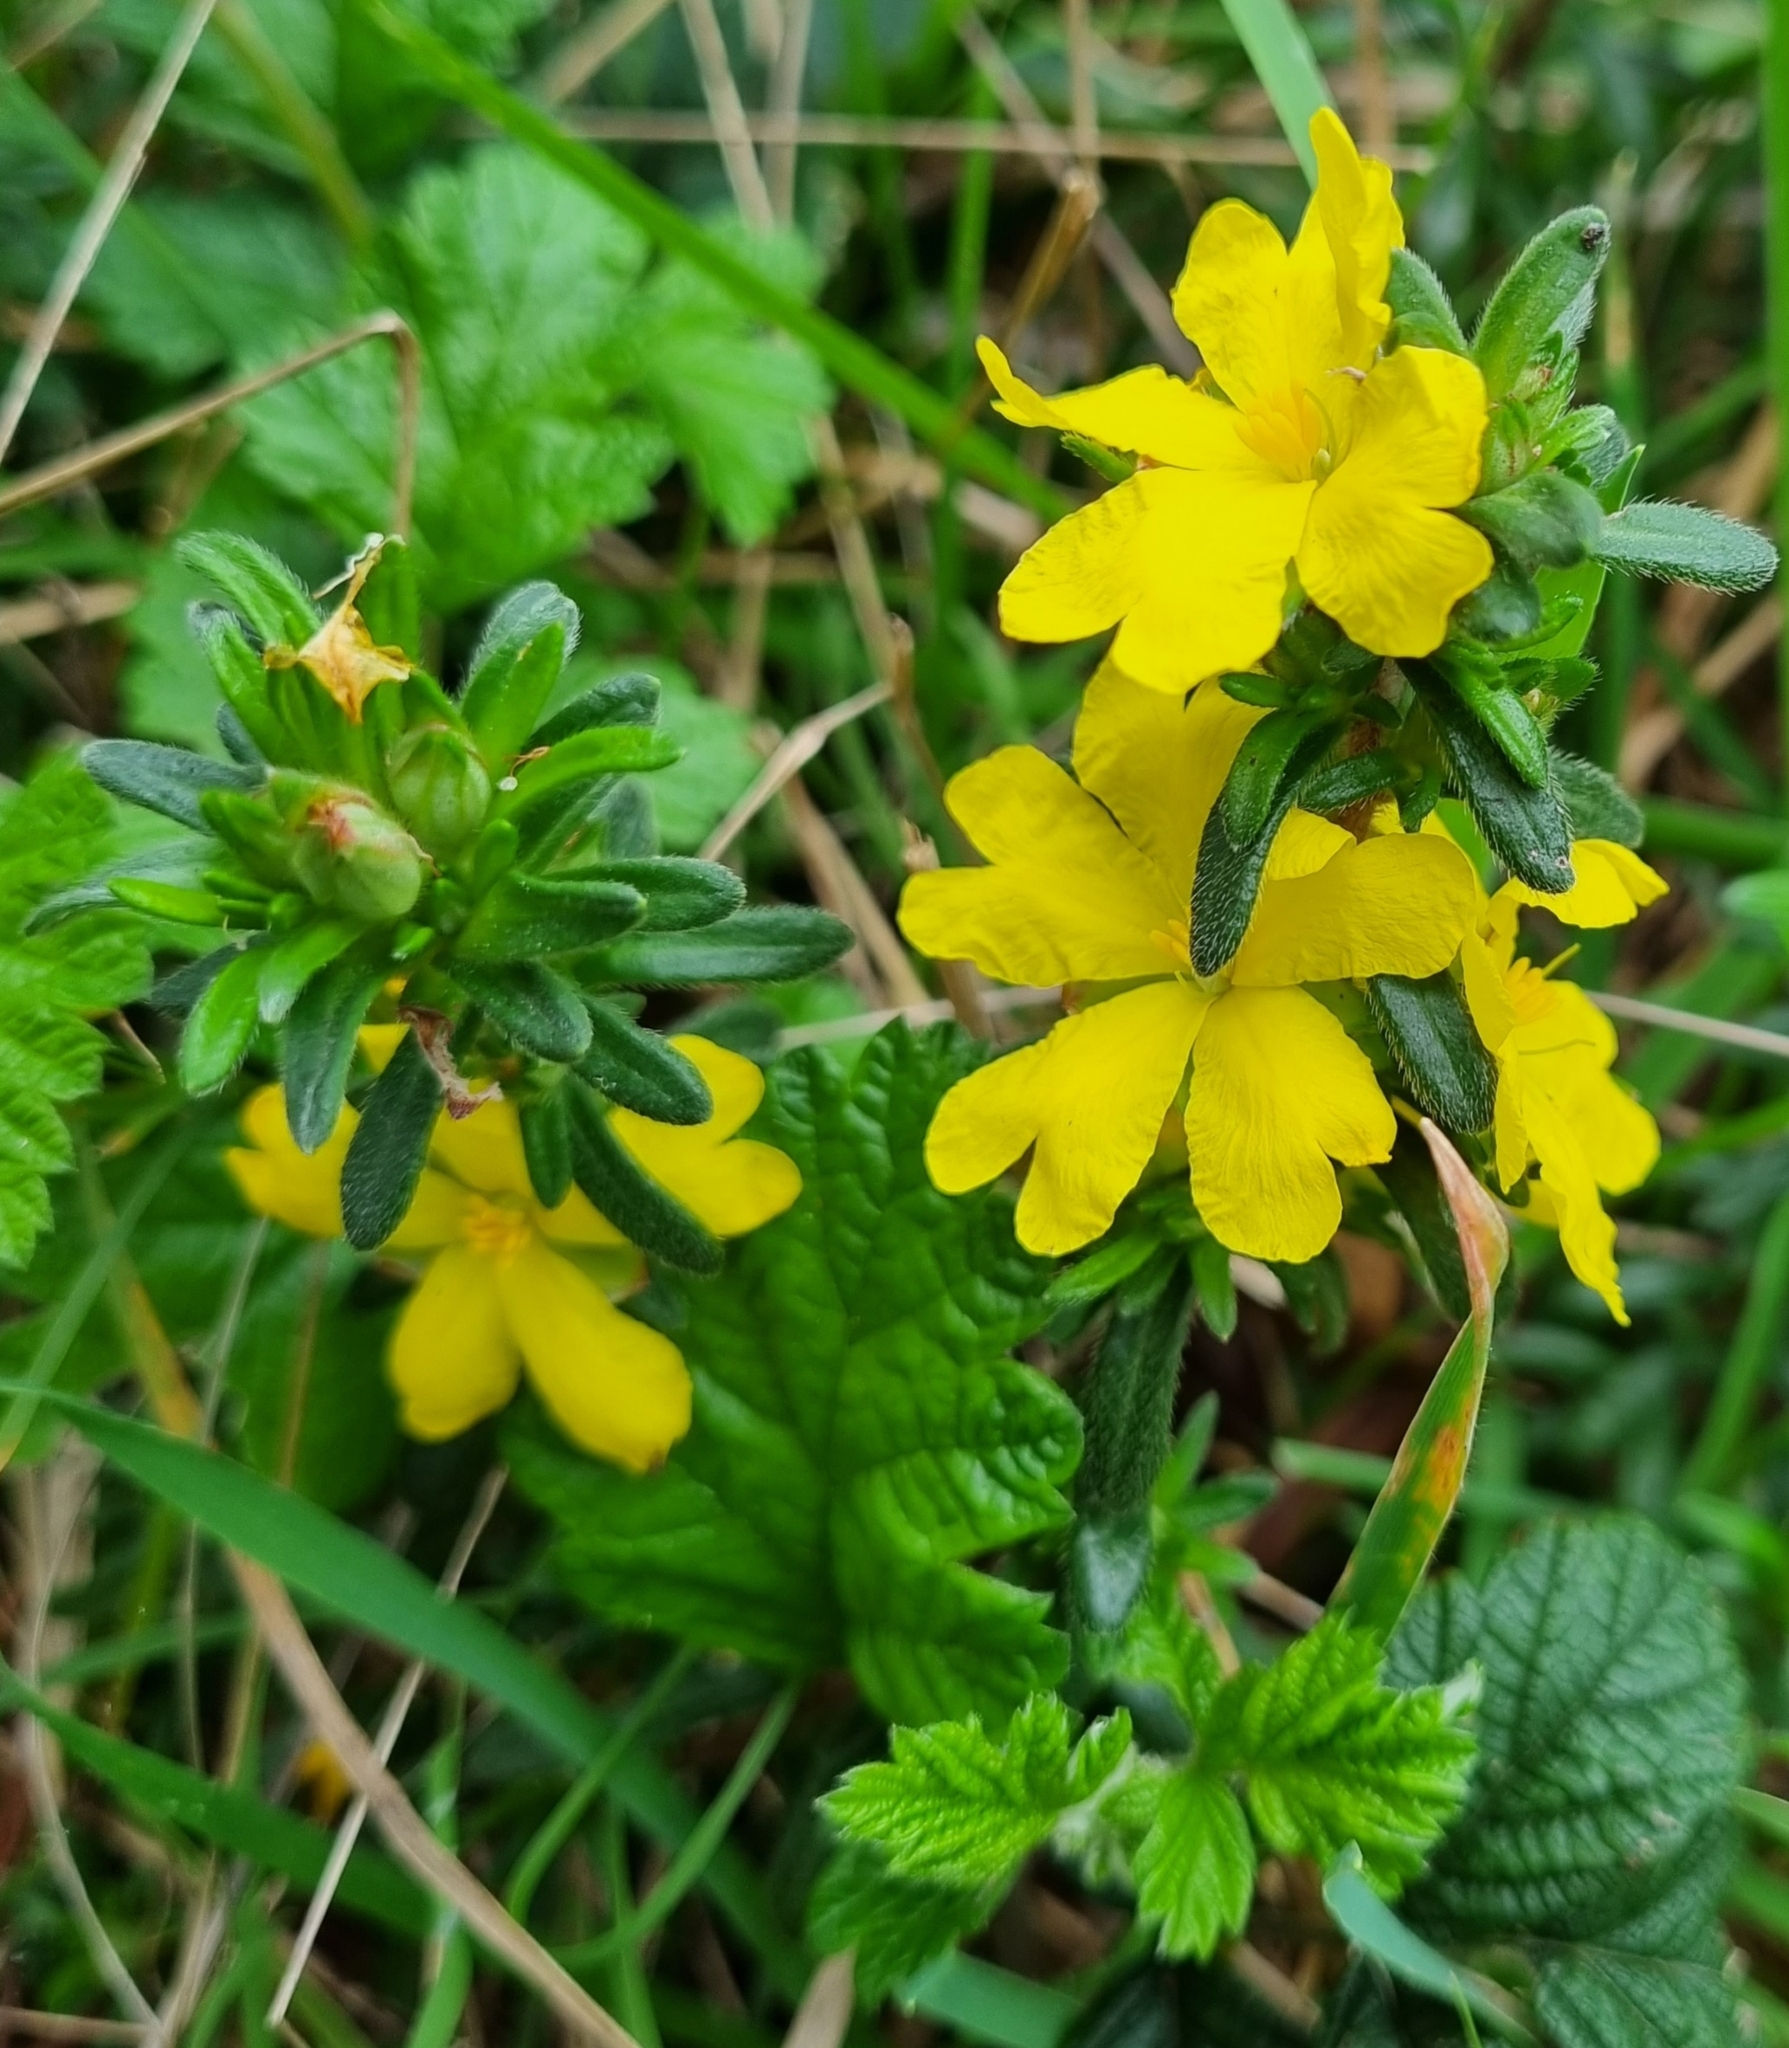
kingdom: Plantae
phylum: Tracheophyta
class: Magnoliopsida
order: Dilleniales
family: Dilleniaceae
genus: Hibbertia
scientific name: Hibbertia sericea
